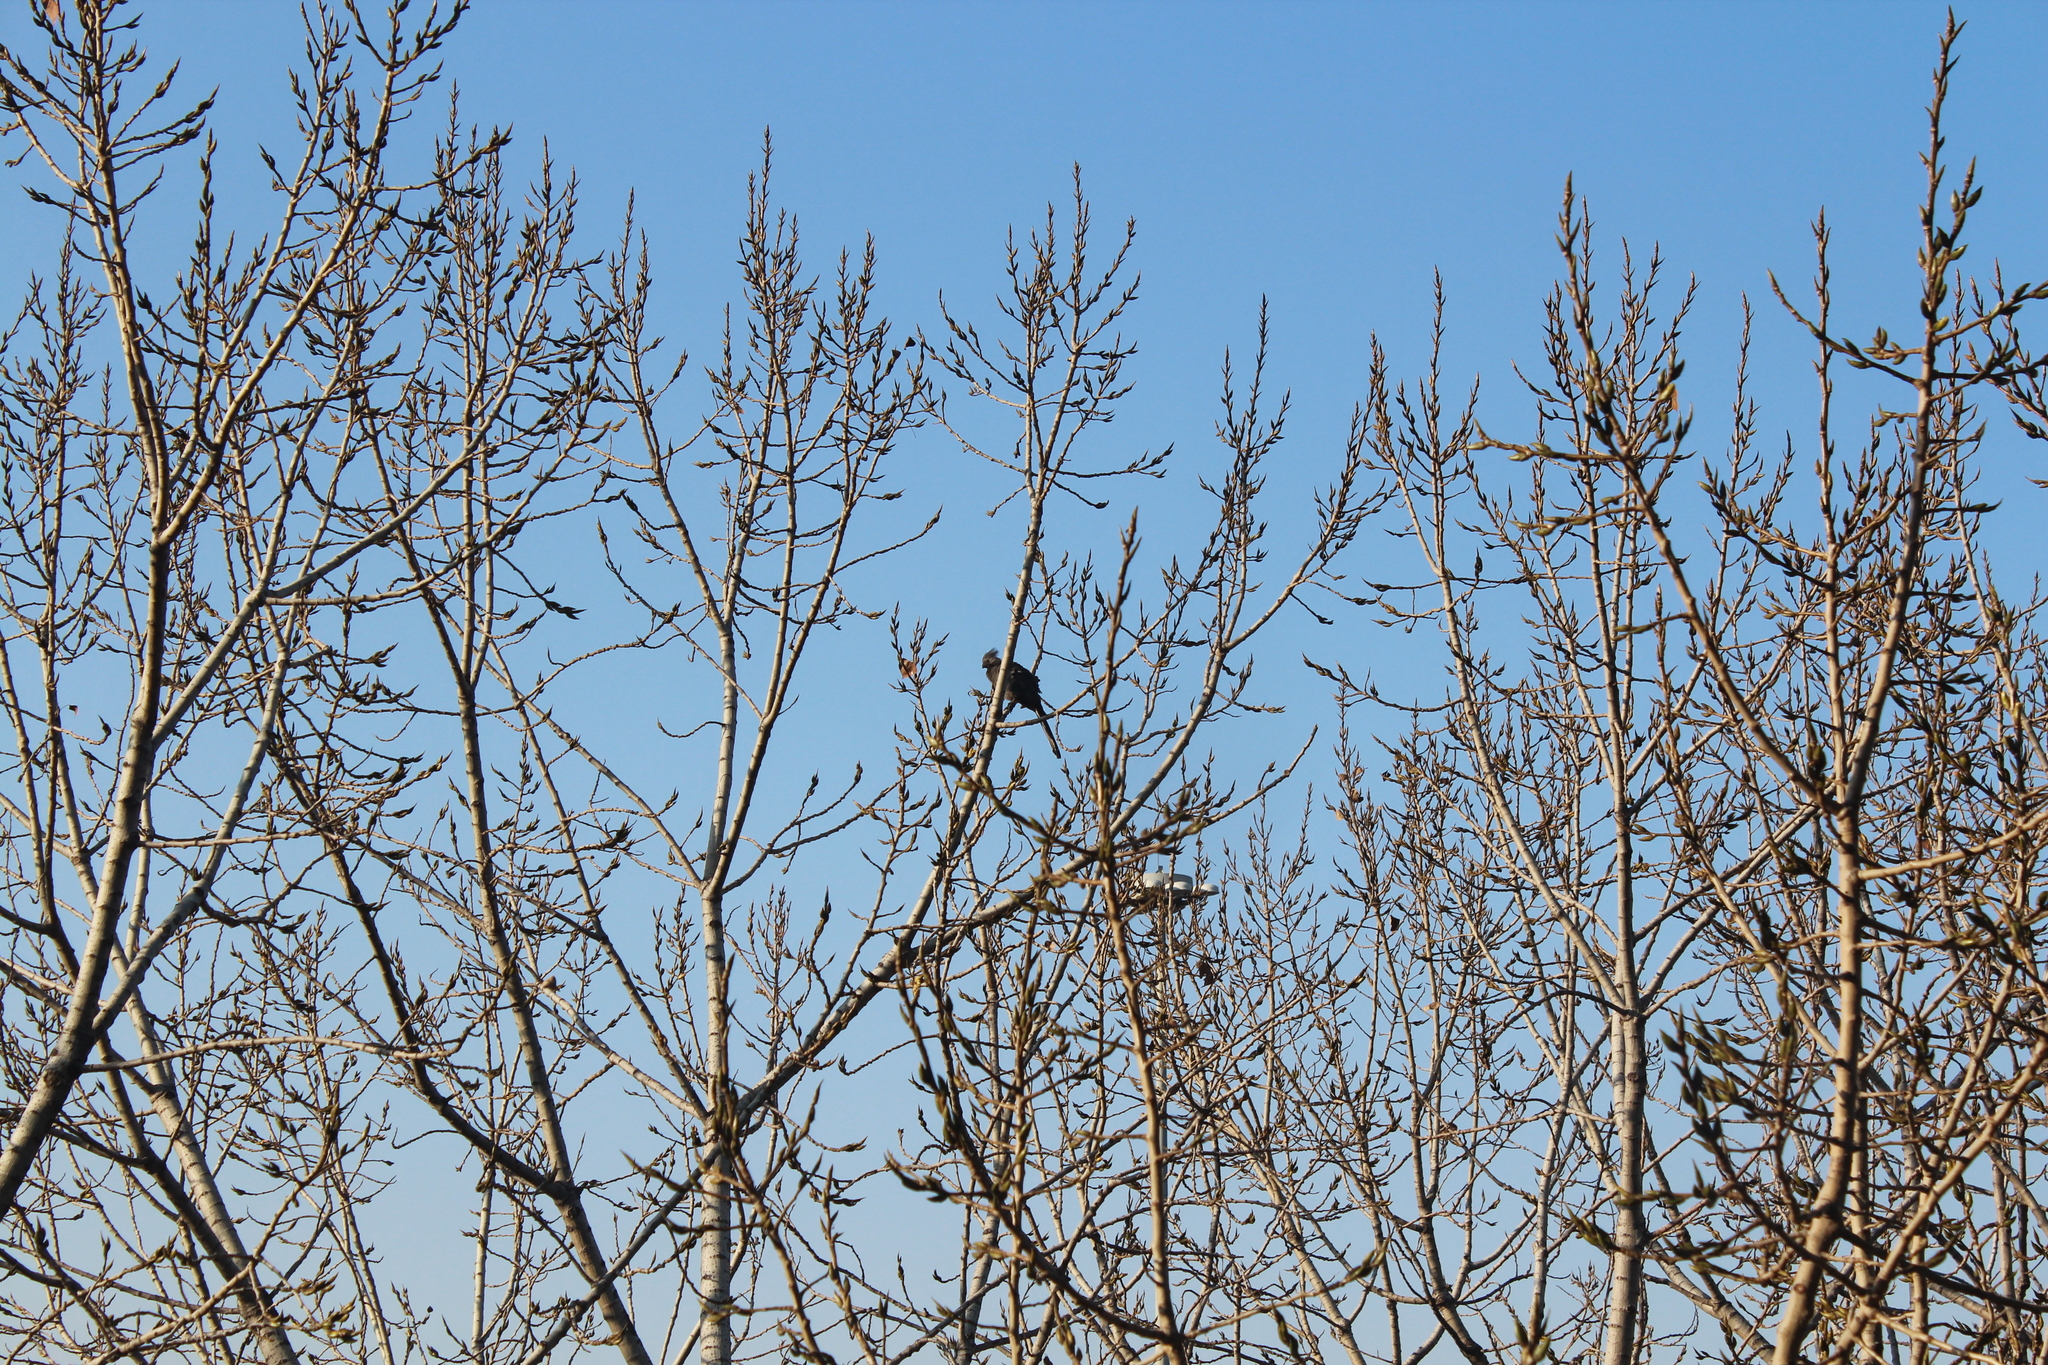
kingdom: Animalia
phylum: Chordata
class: Aves
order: Musophagiformes
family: Musophagidae
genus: Corythaixoides
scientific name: Corythaixoides concolor
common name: Grey go-away-bird
